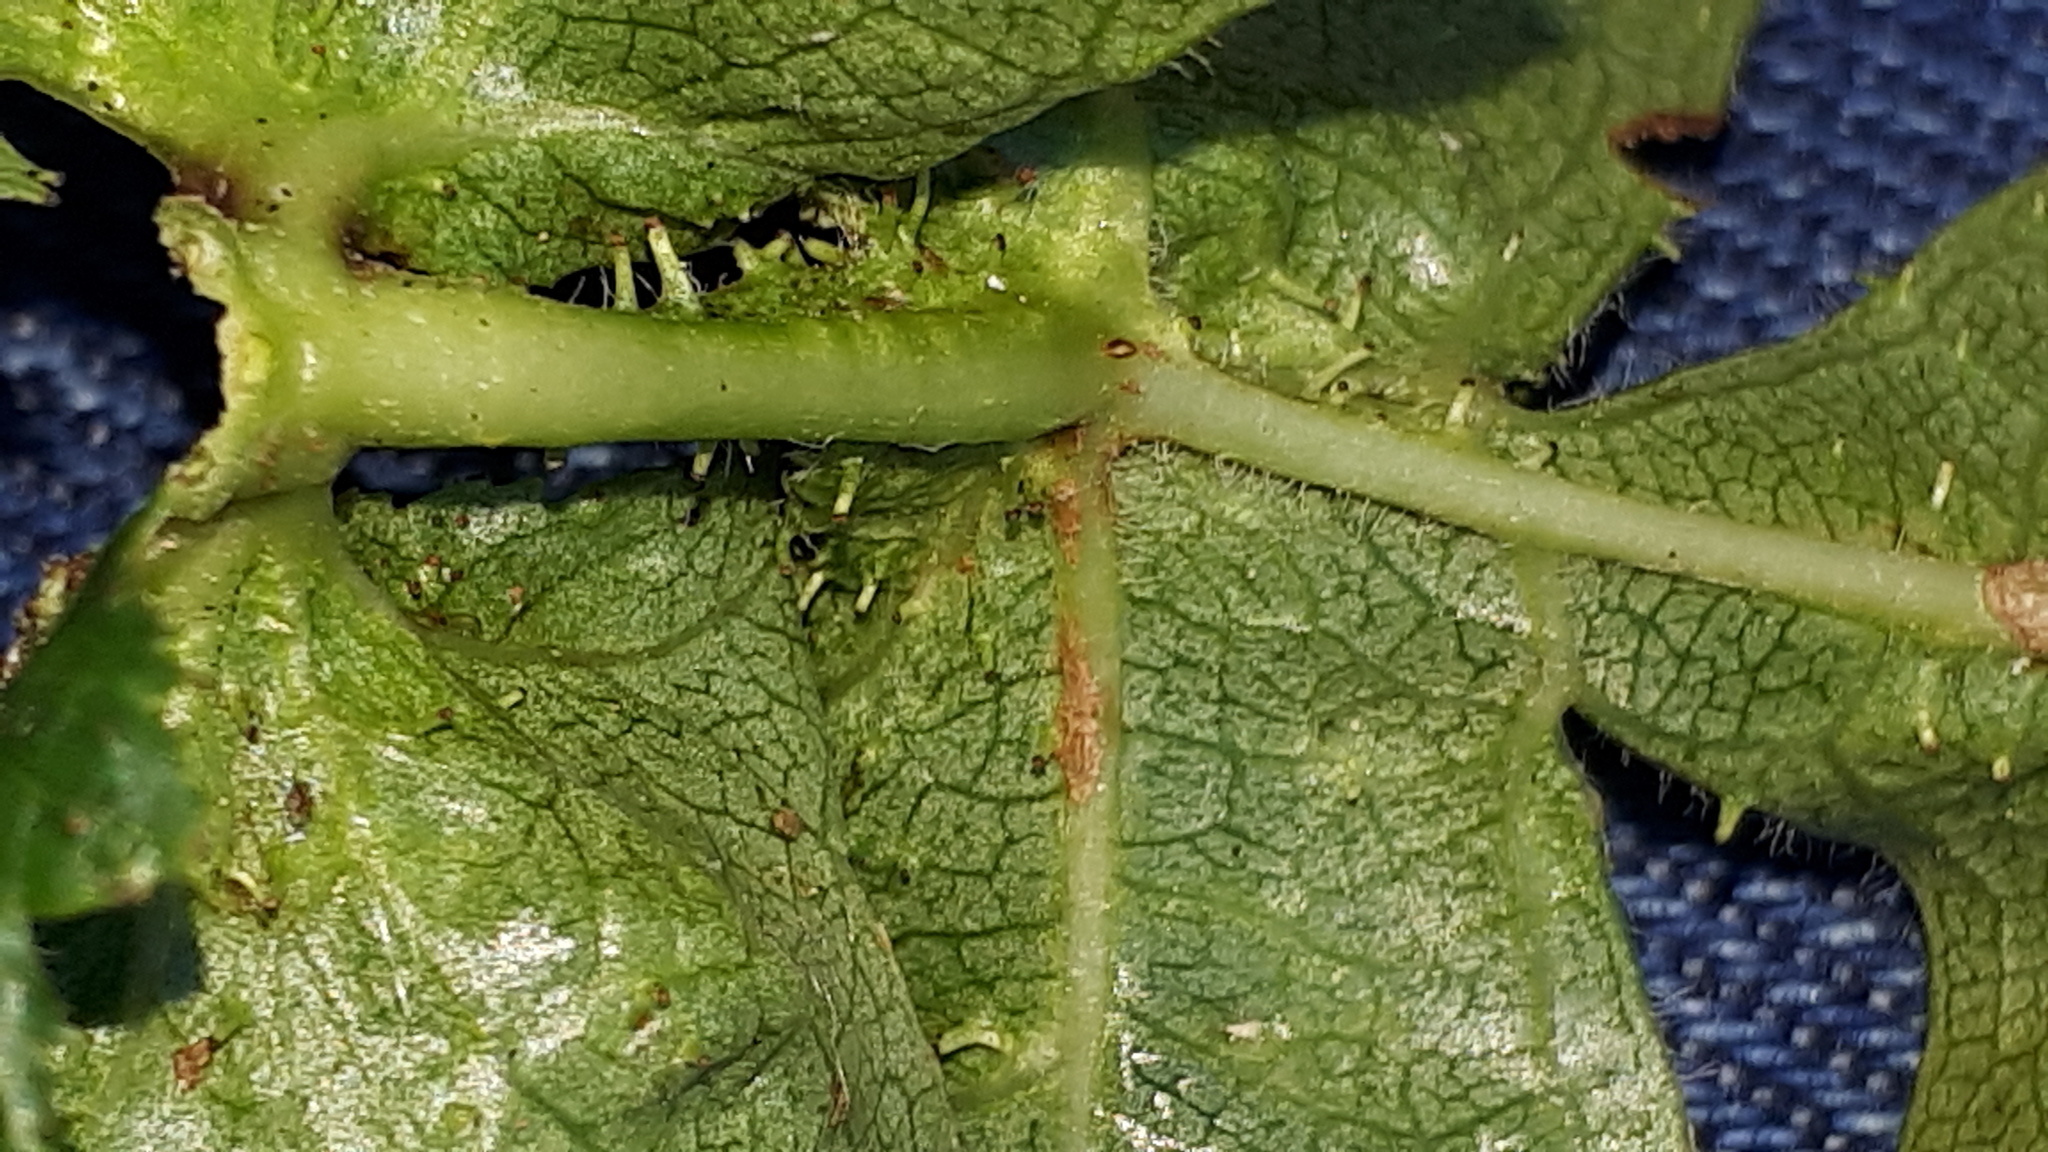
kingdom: Animalia
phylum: Arthropoda
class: Insecta
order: Diptera
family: Cecidomyiidae
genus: Dasineura
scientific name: Dasineura crataegi
